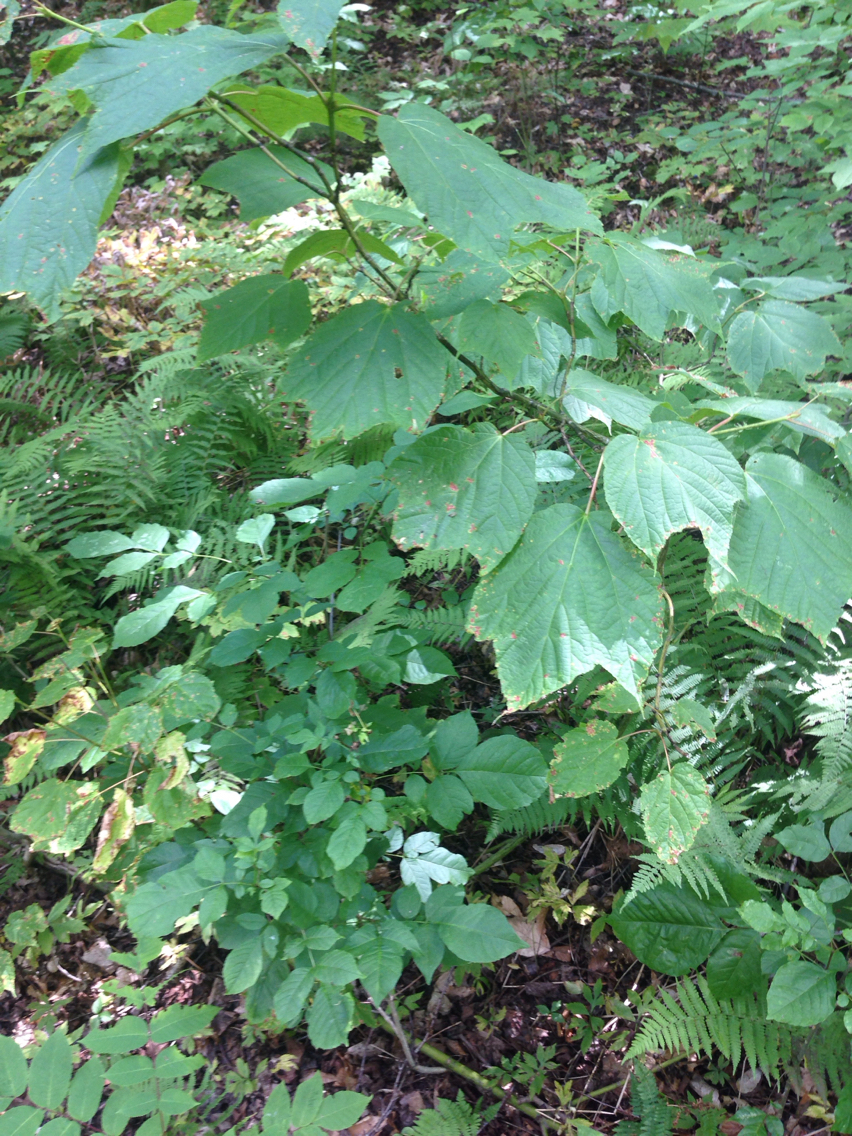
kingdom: Plantae
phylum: Tracheophyta
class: Magnoliopsida
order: Sapindales
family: Sapindaceae
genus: Acer
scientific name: Acer pensylvanicum
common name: Moosewood
